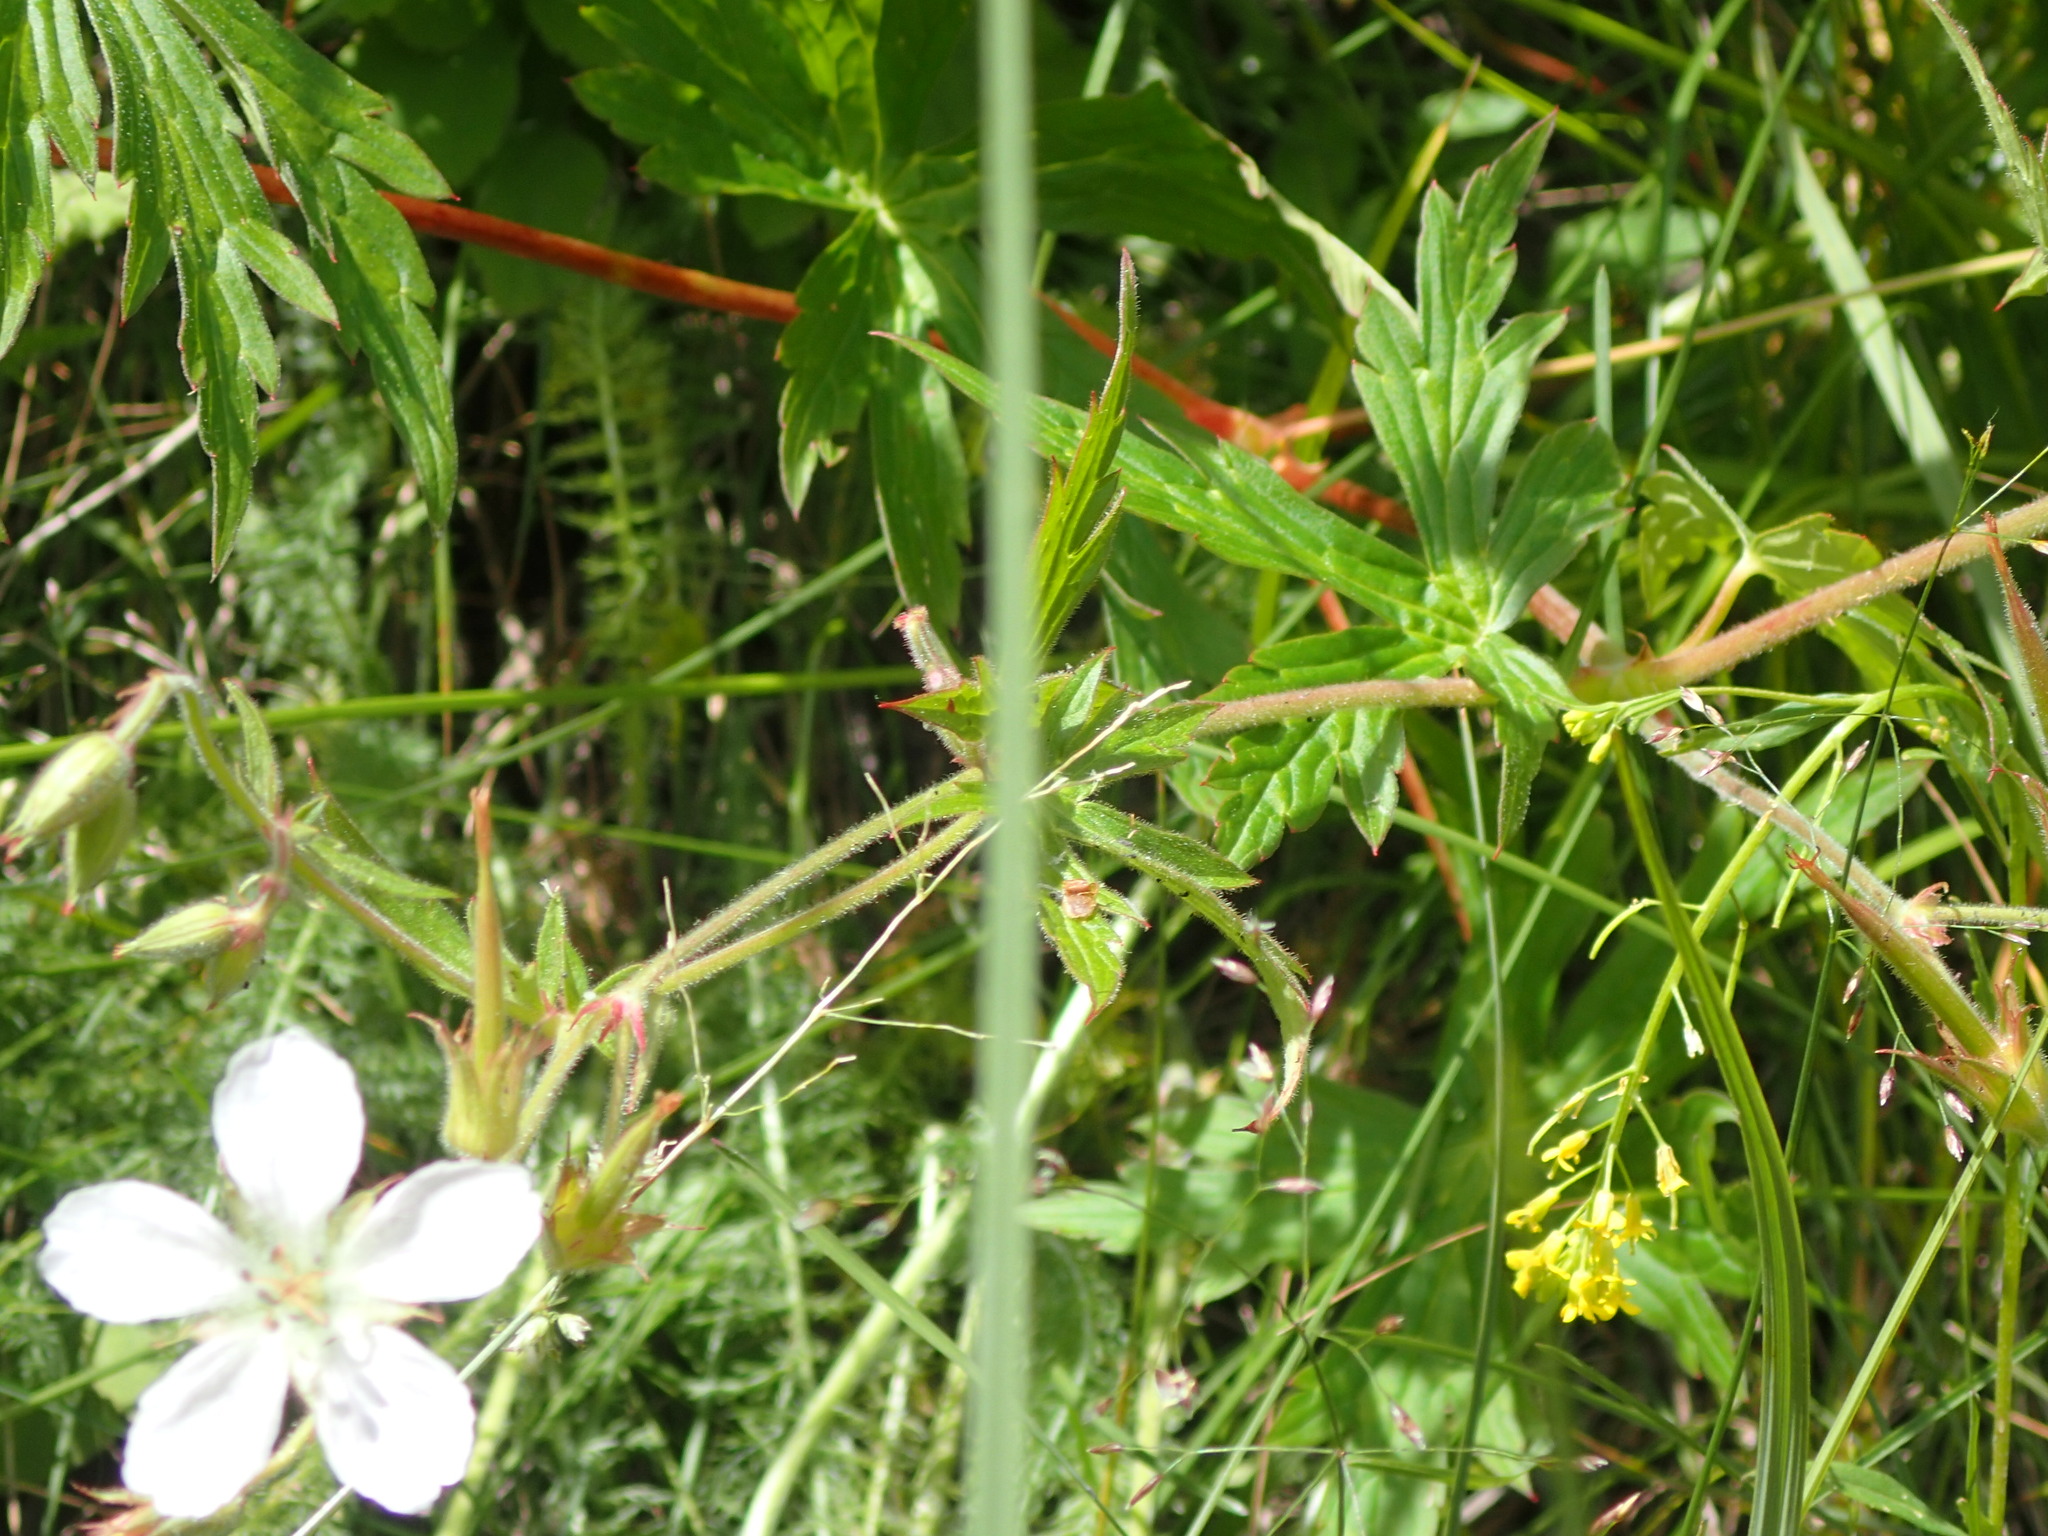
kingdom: Plantae
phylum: Tracheophyta
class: Magnoliopsida
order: Geraniales
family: Geraniaceae
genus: Geranium
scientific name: Geranium richardsonii
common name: Richardson's crane's-bill
